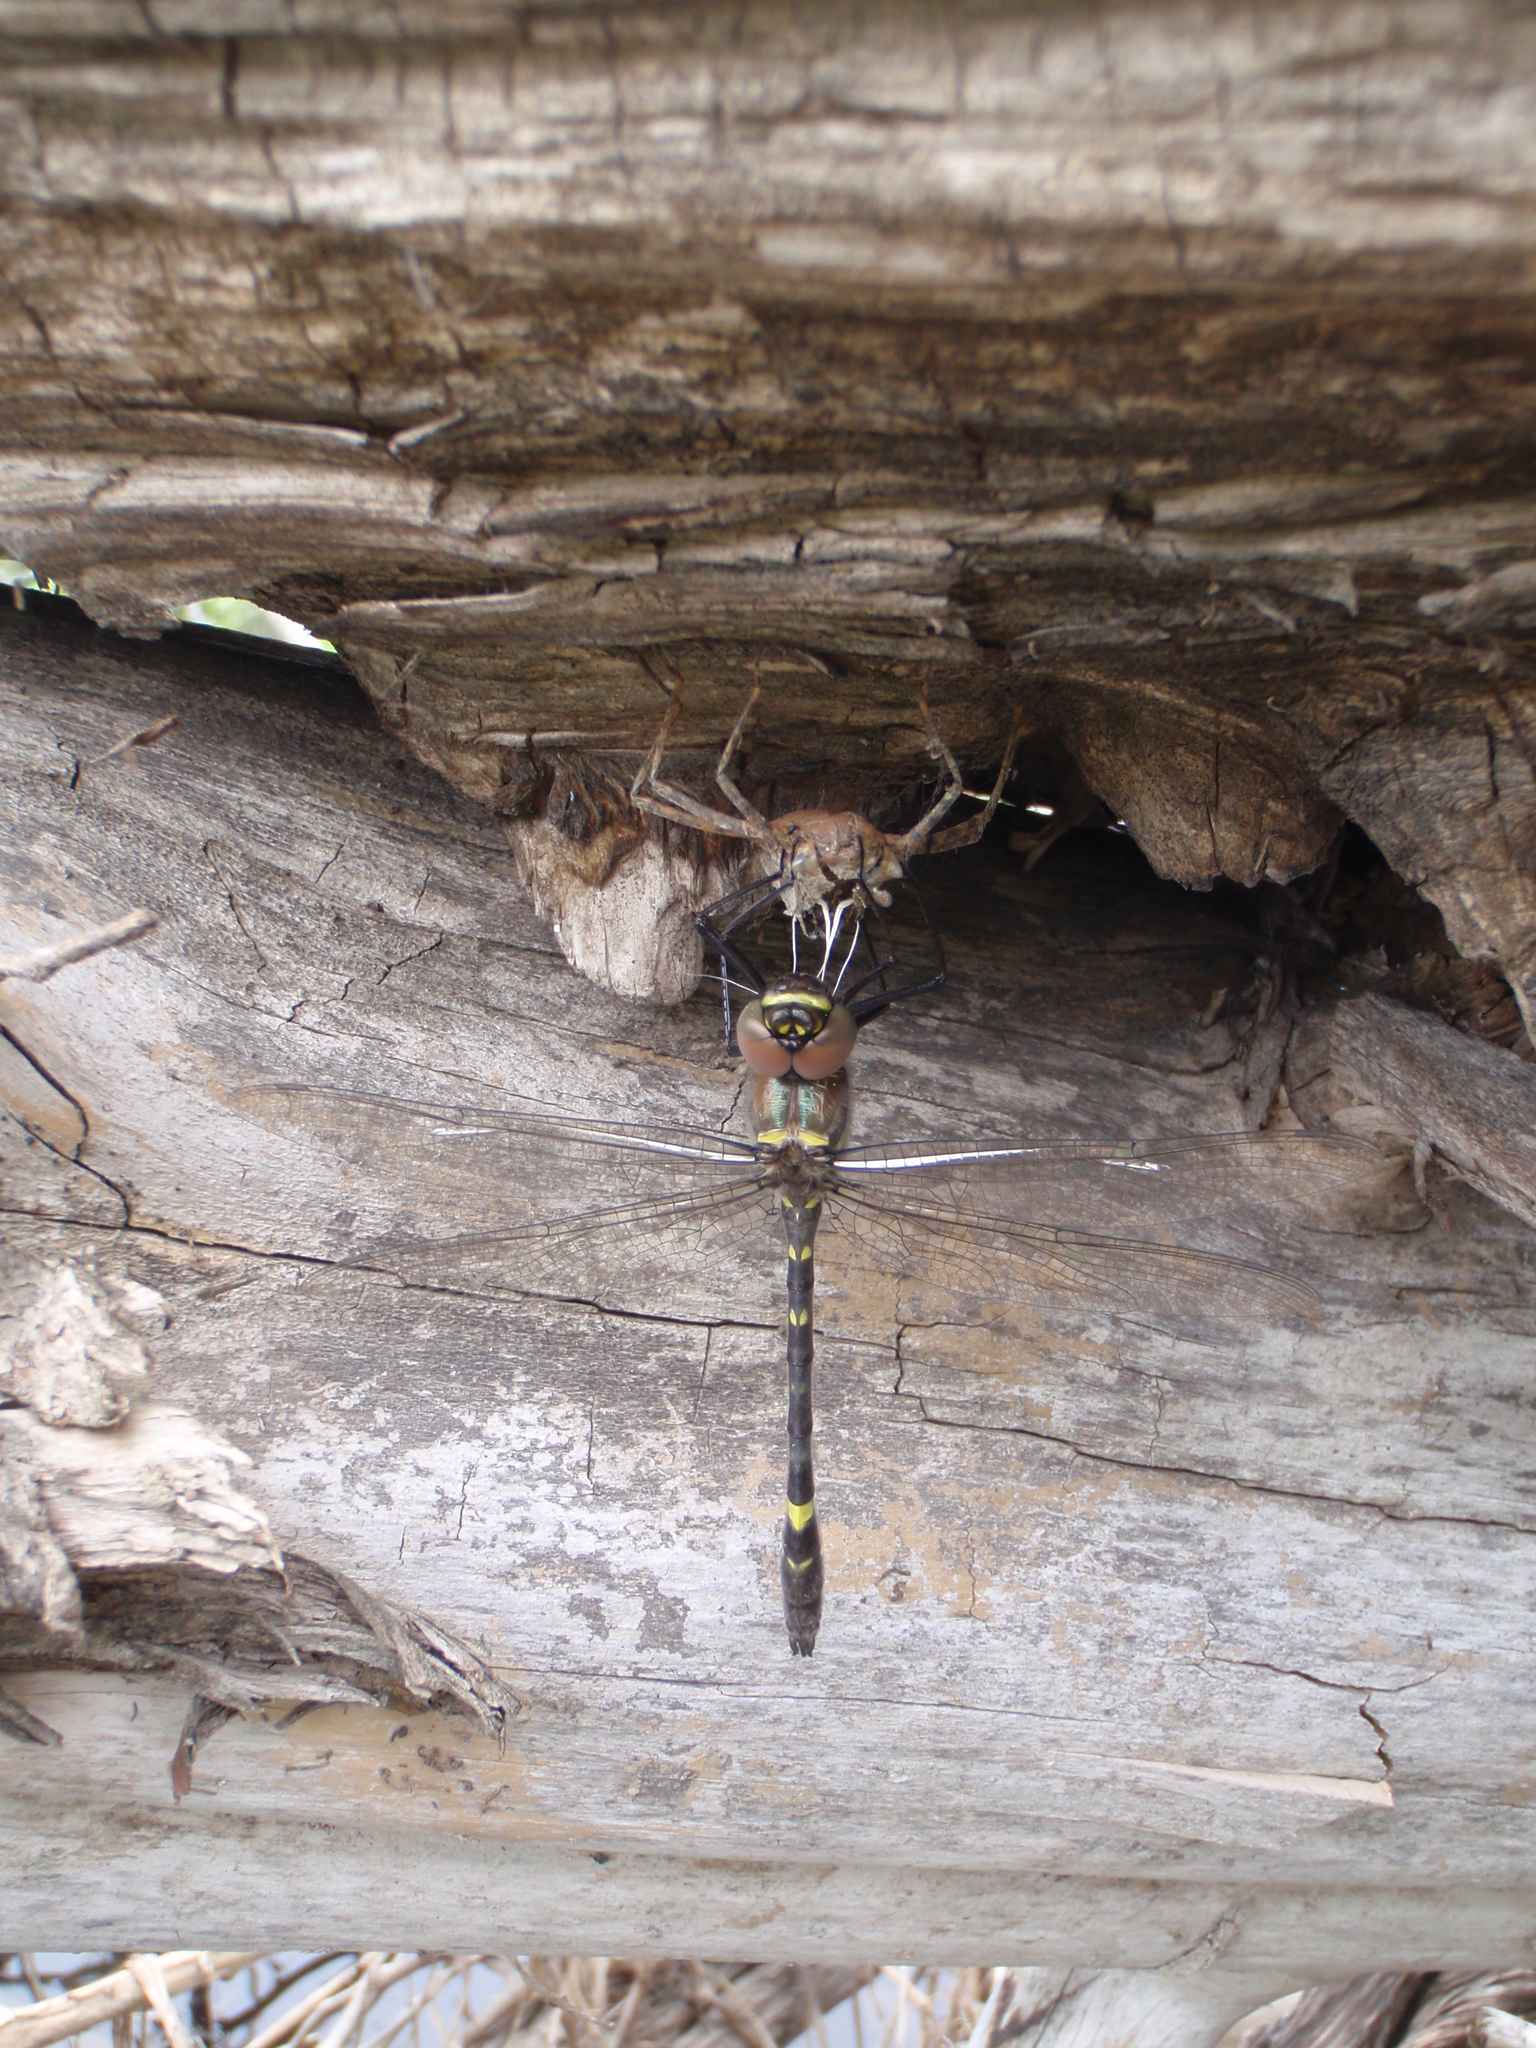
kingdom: Animalia
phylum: Arthropoda
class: Insecta
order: Odonata
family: Macromiidae
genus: Macromia
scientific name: Macromia illinoiensis
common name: Swift river cruiser
